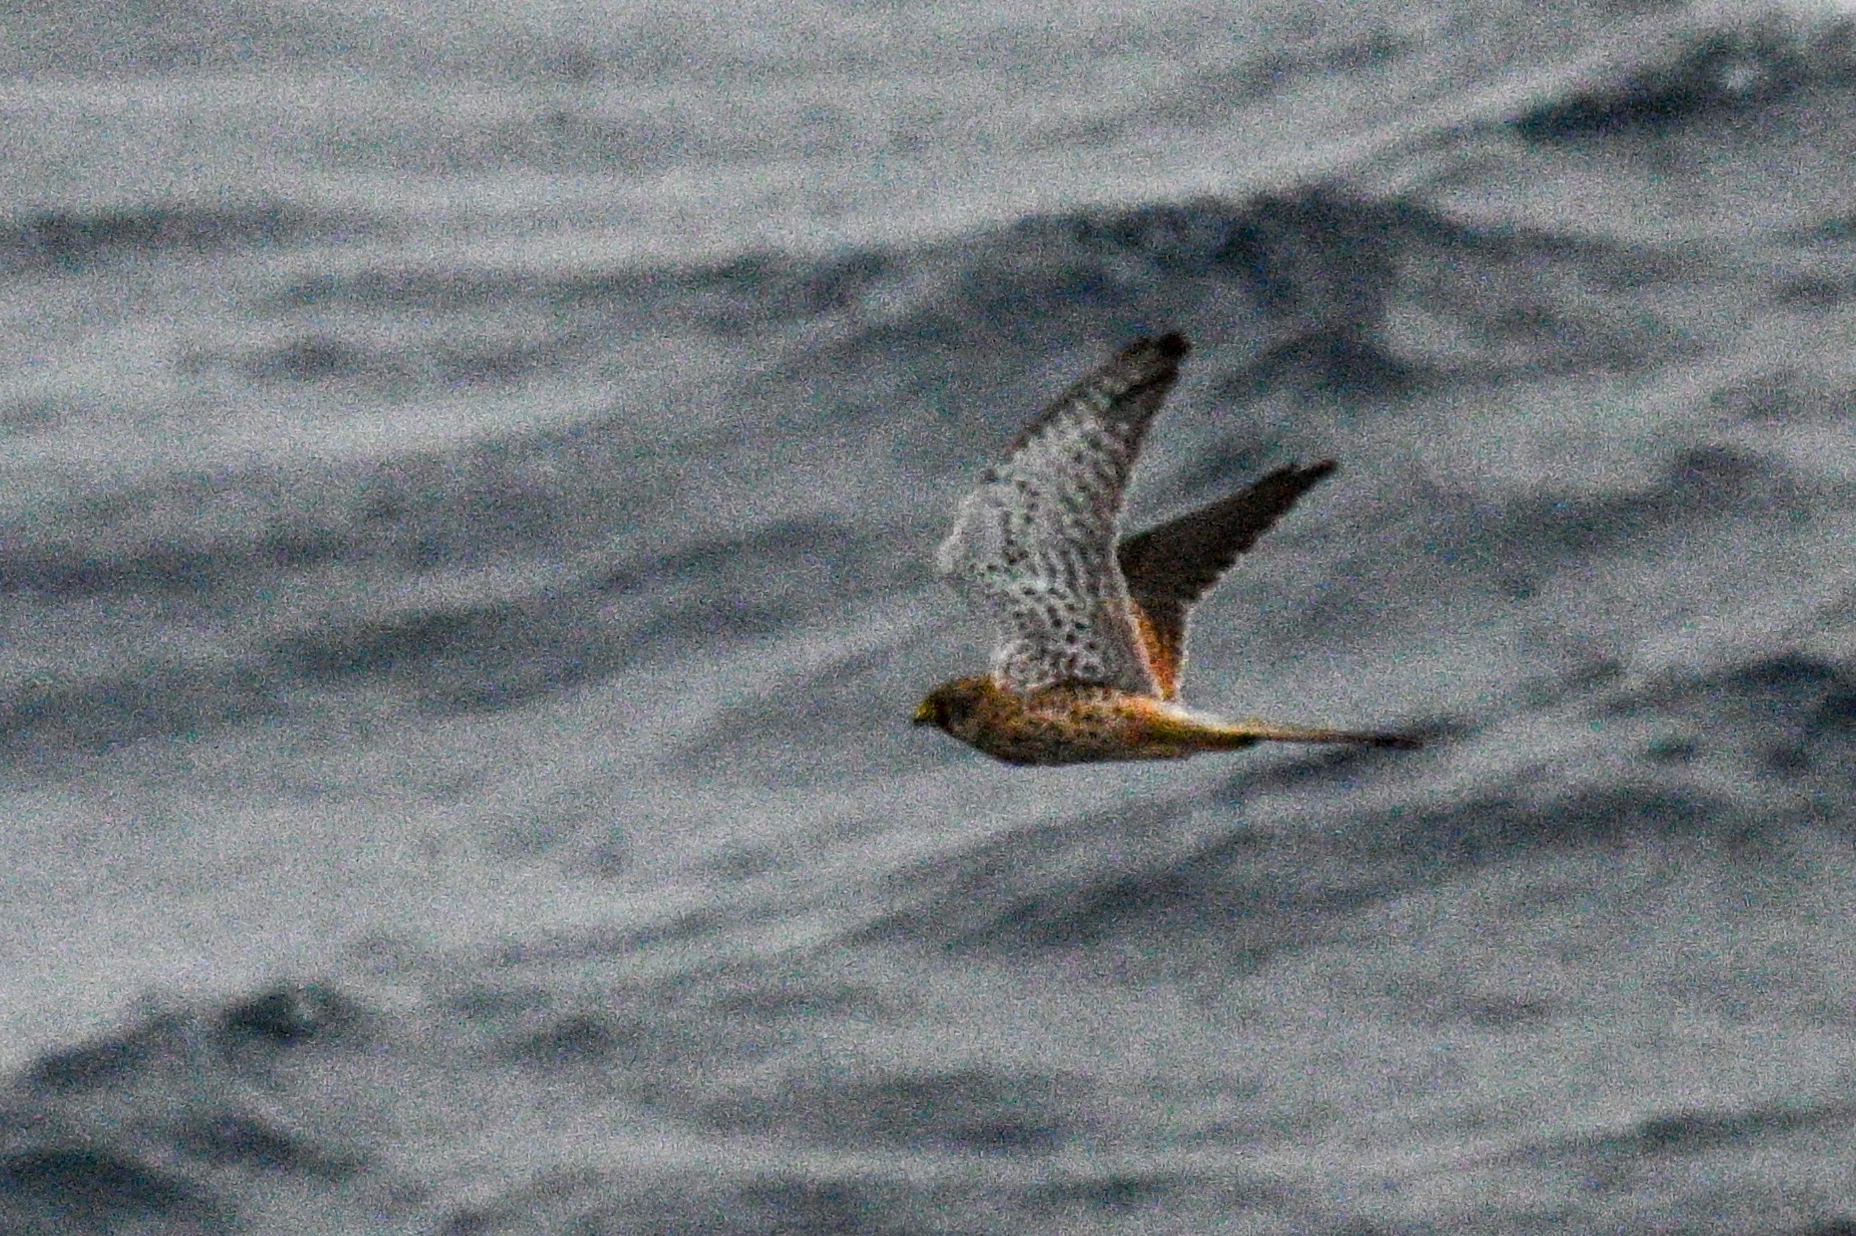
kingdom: Animalia
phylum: Chordata
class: Aves
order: Falconiformes
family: Falconidae
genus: Falco
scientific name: Falco tinnunculus
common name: Common kestrel
